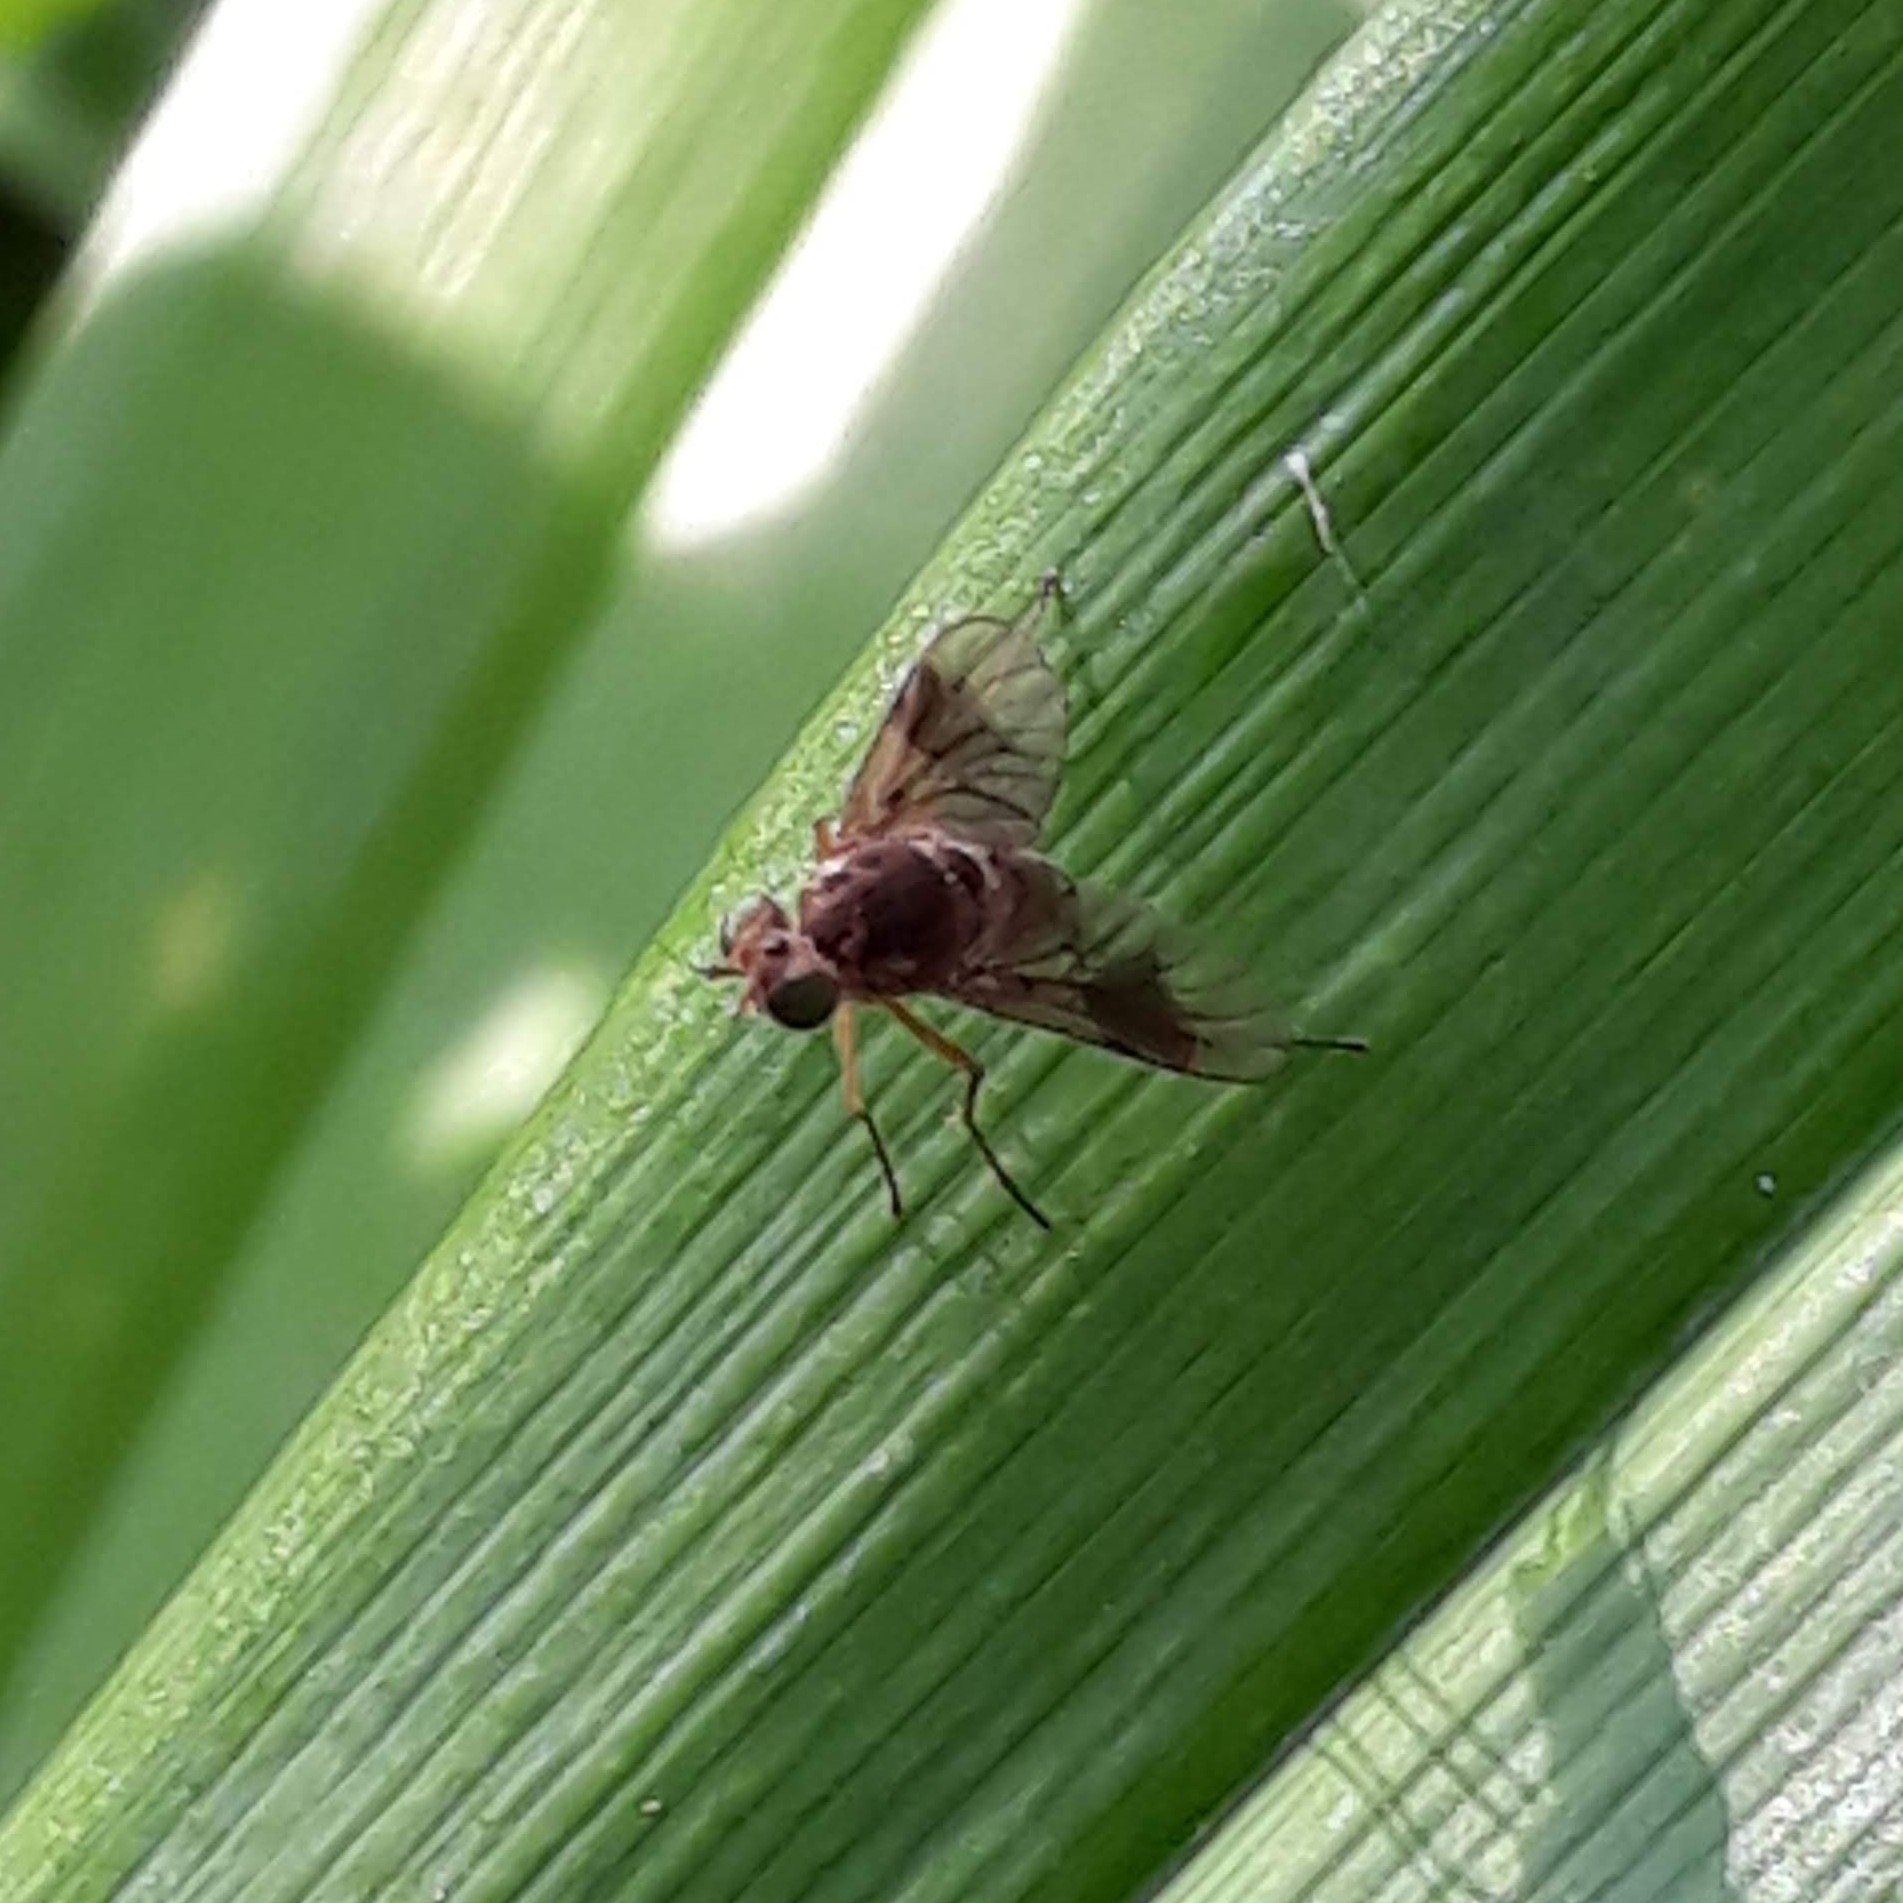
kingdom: Animalia
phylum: Arthropoda
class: Insecta
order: Diptera
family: Rhagionidae
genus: Chrysopilus
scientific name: Chrysopilus quadratus
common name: Quadrate snipe fly
